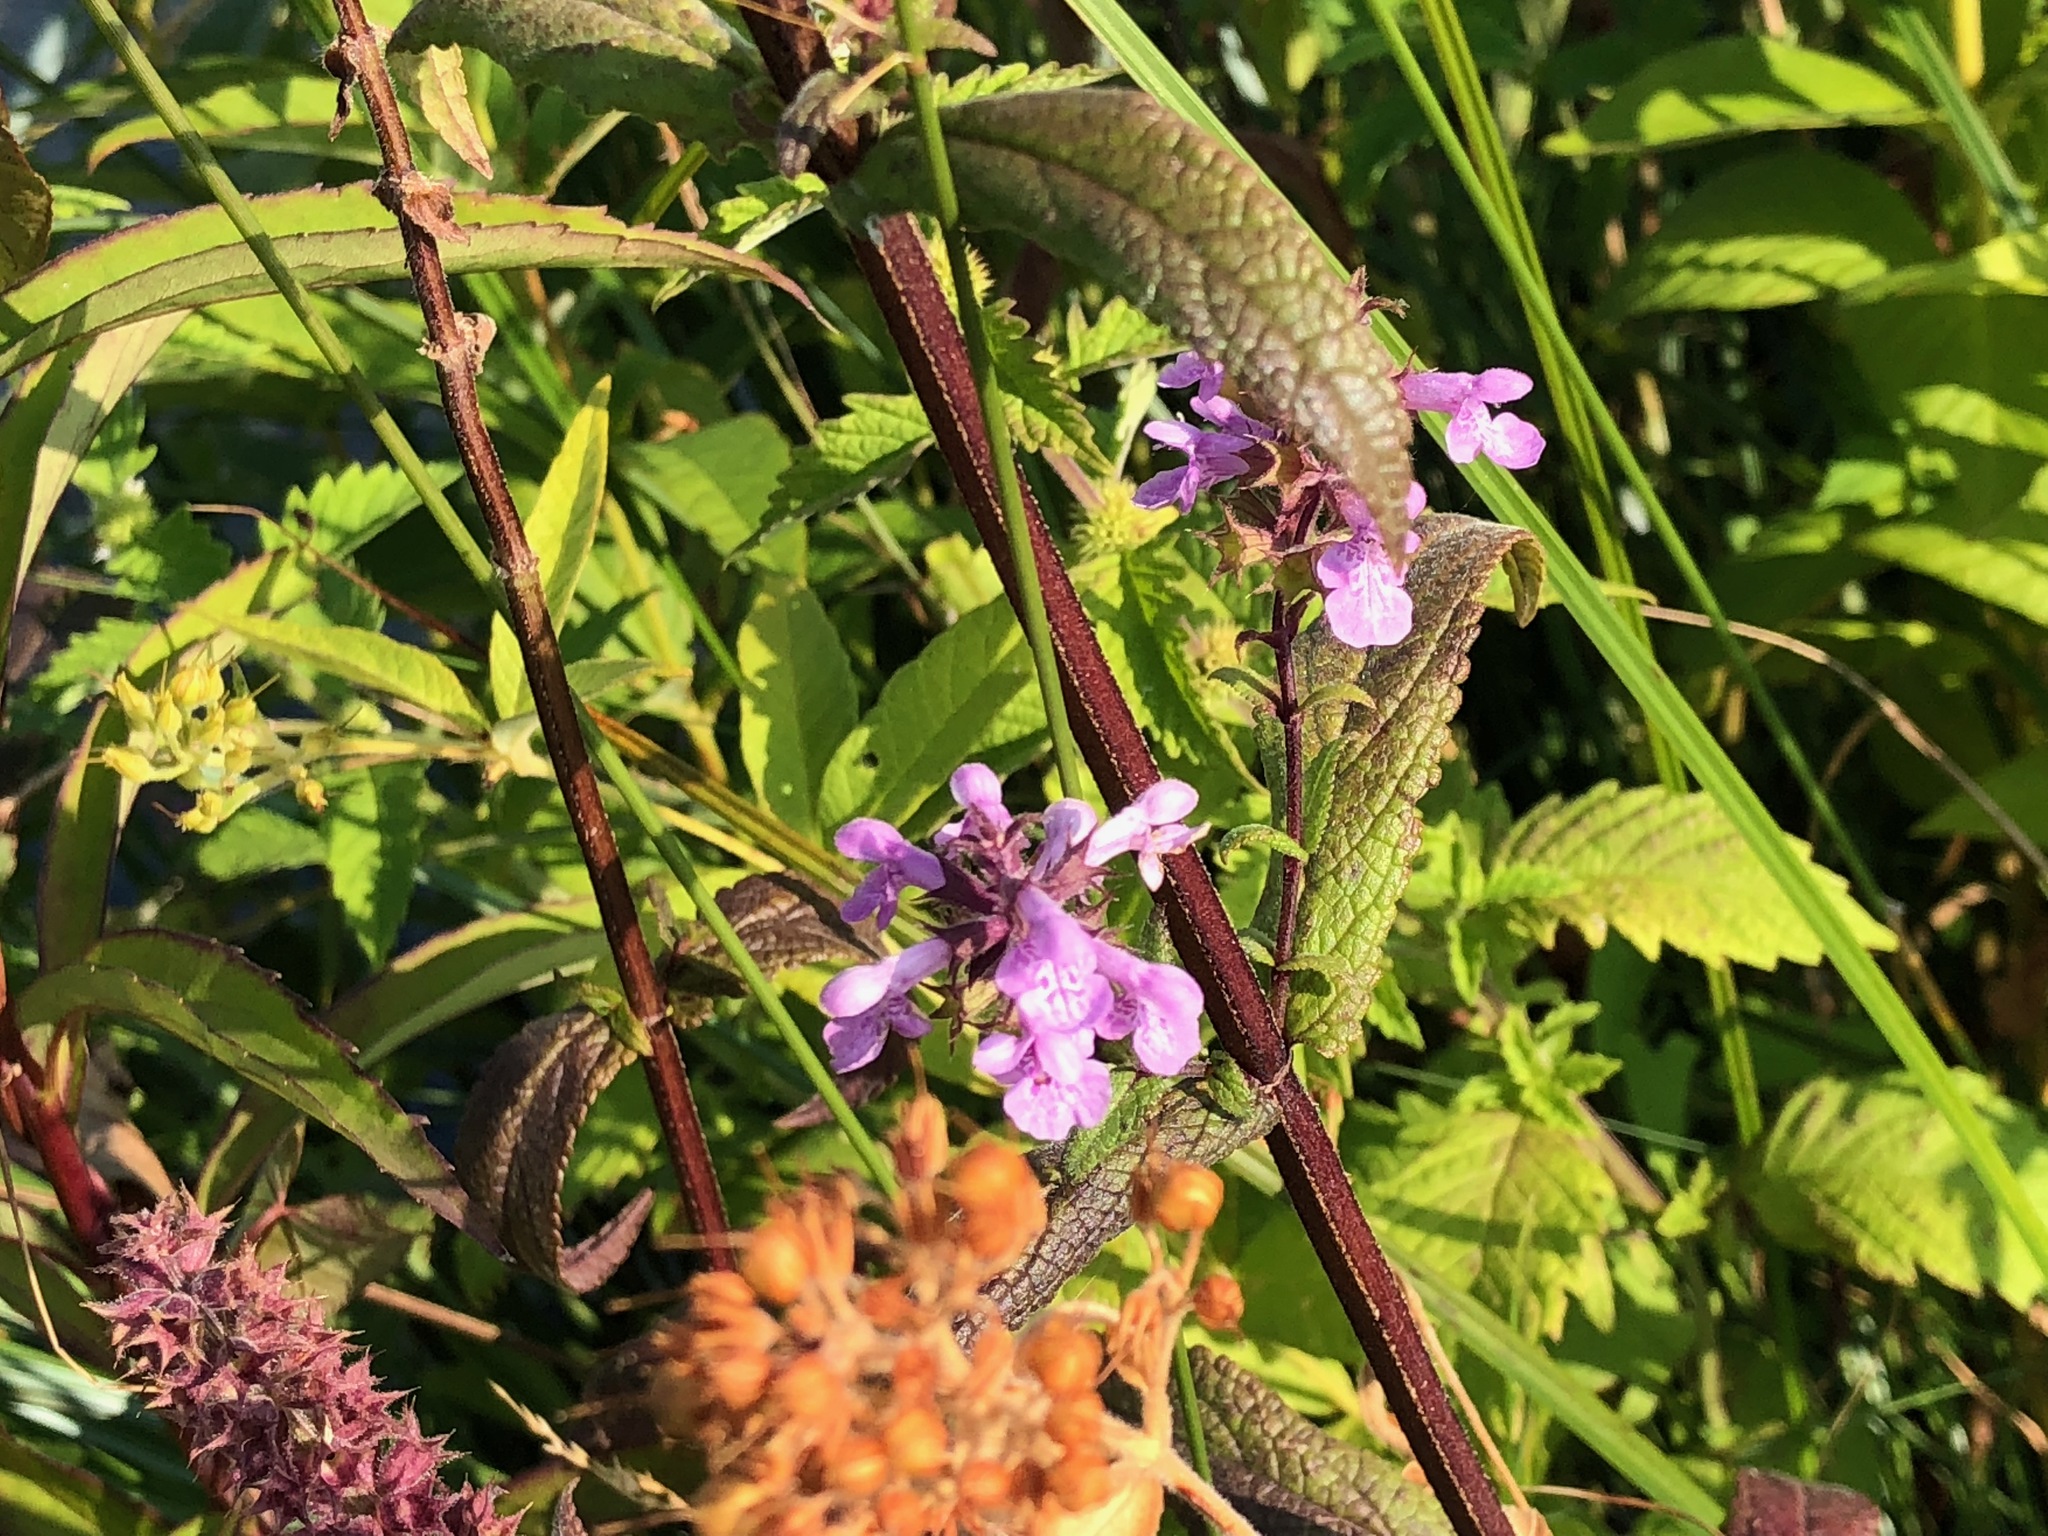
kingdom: Plantae
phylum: Tracheophyta
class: Magnoliopsida
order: Lamiales
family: Lamiaceae
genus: Stachys
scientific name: Stachys palustris
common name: Marsh woundwort
